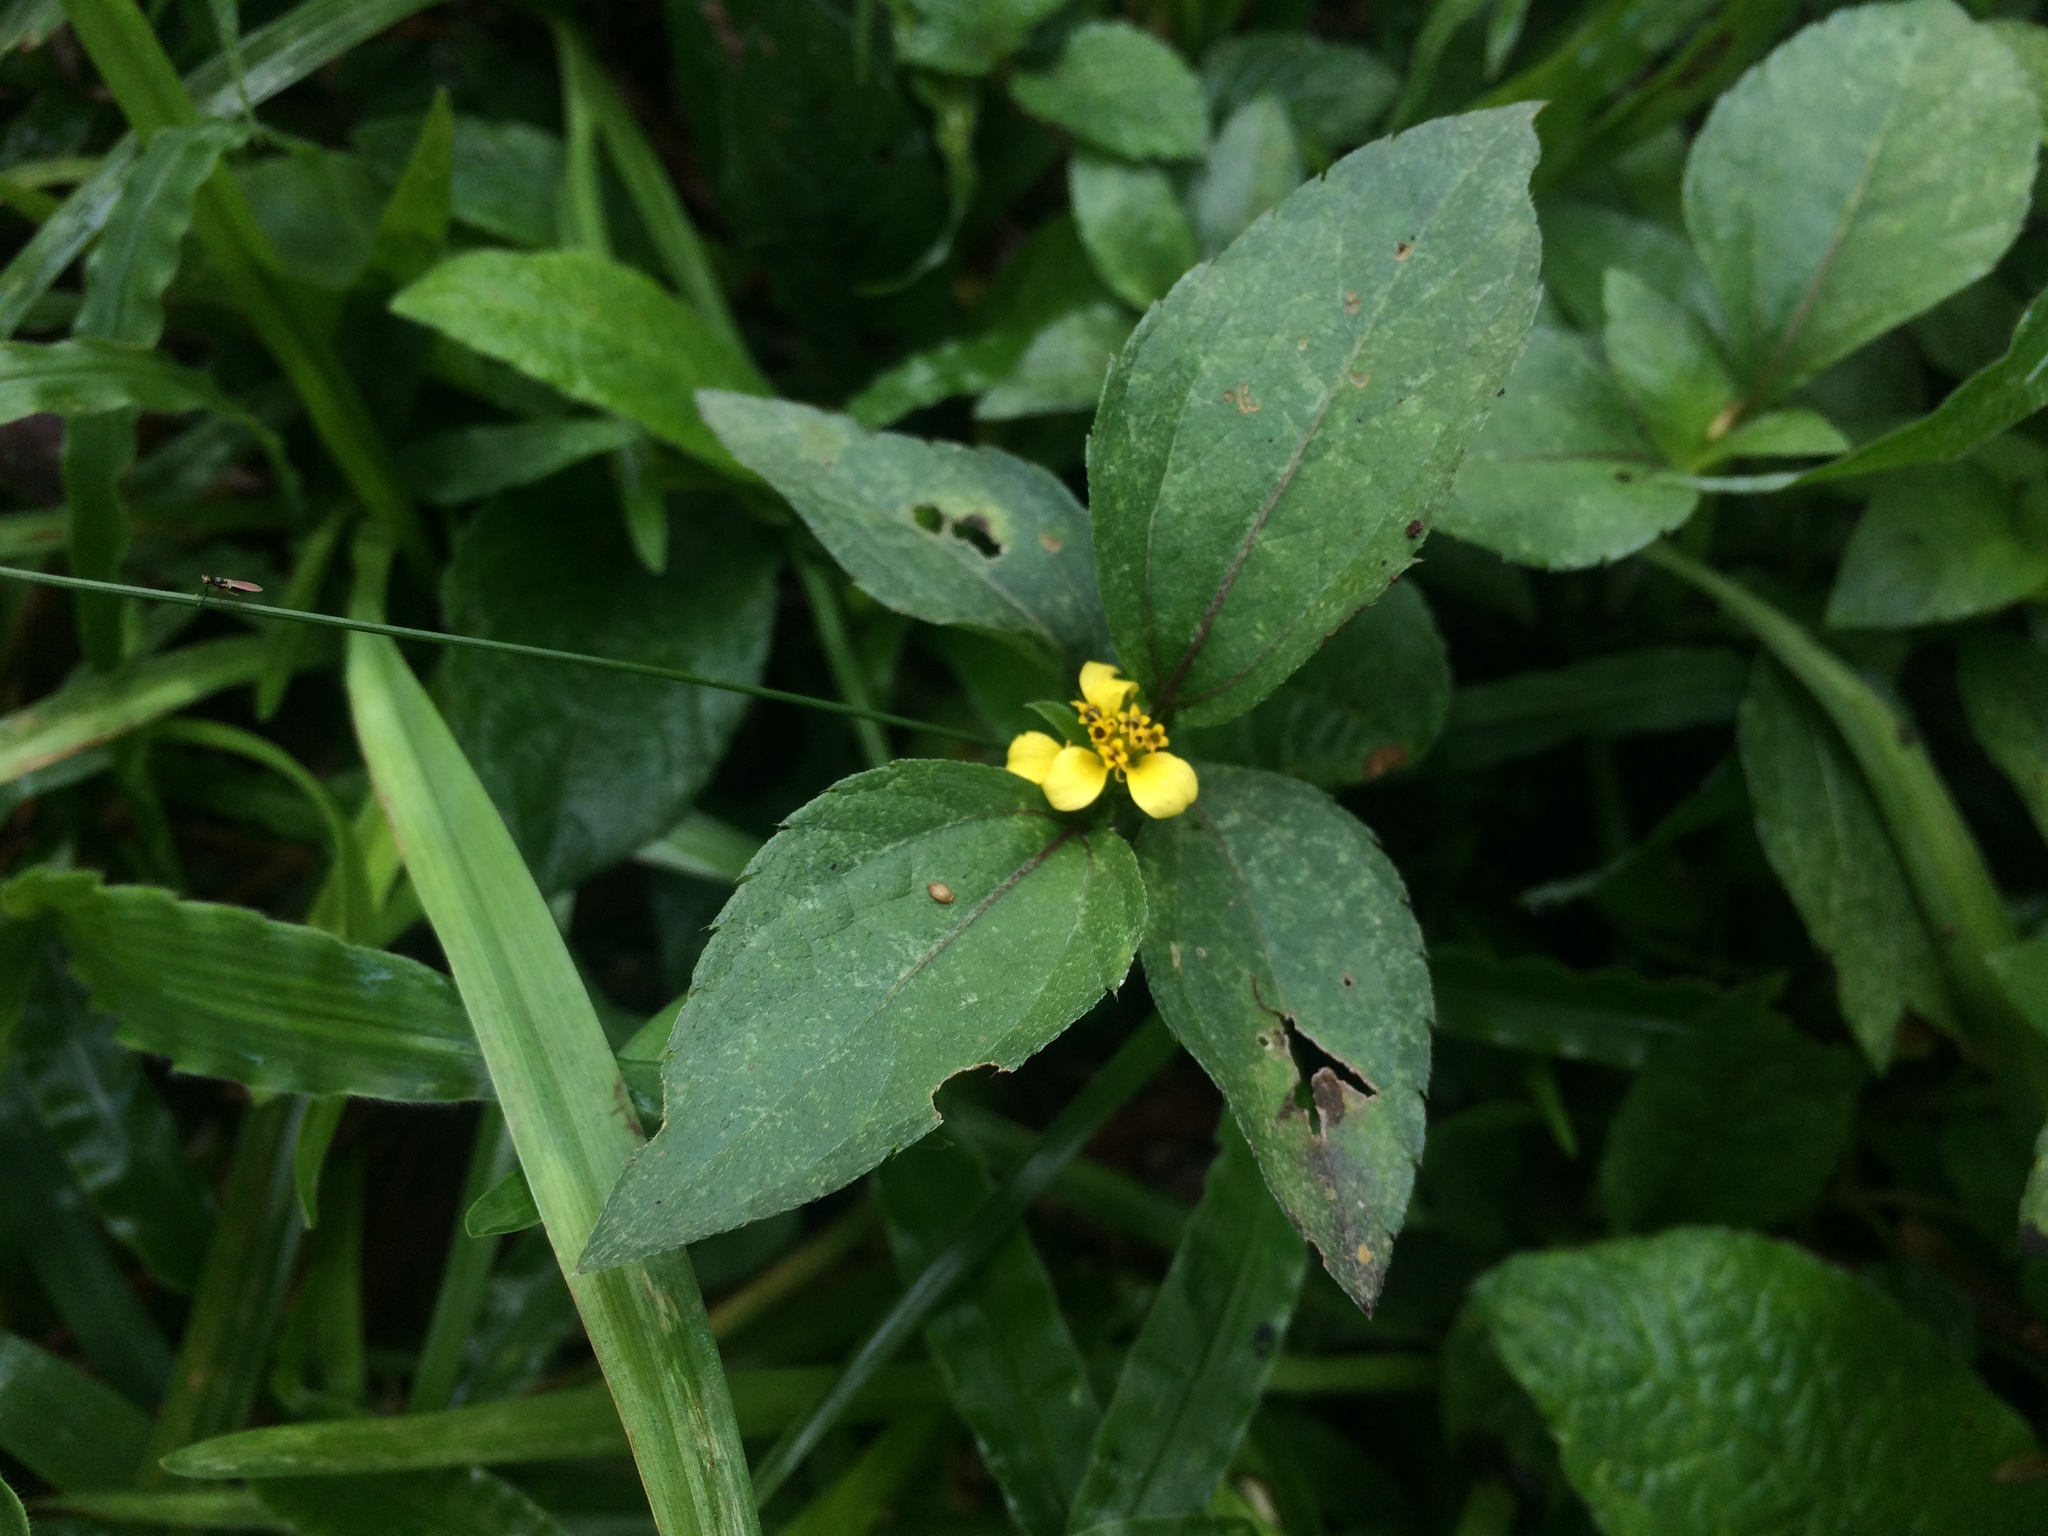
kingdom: Plantae
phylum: Tracheophyta
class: Magnoliopsida
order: Asterales
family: Asteraceae
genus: Calyptocarpus
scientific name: Calyptocarpus vialis
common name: Straggler daisy
